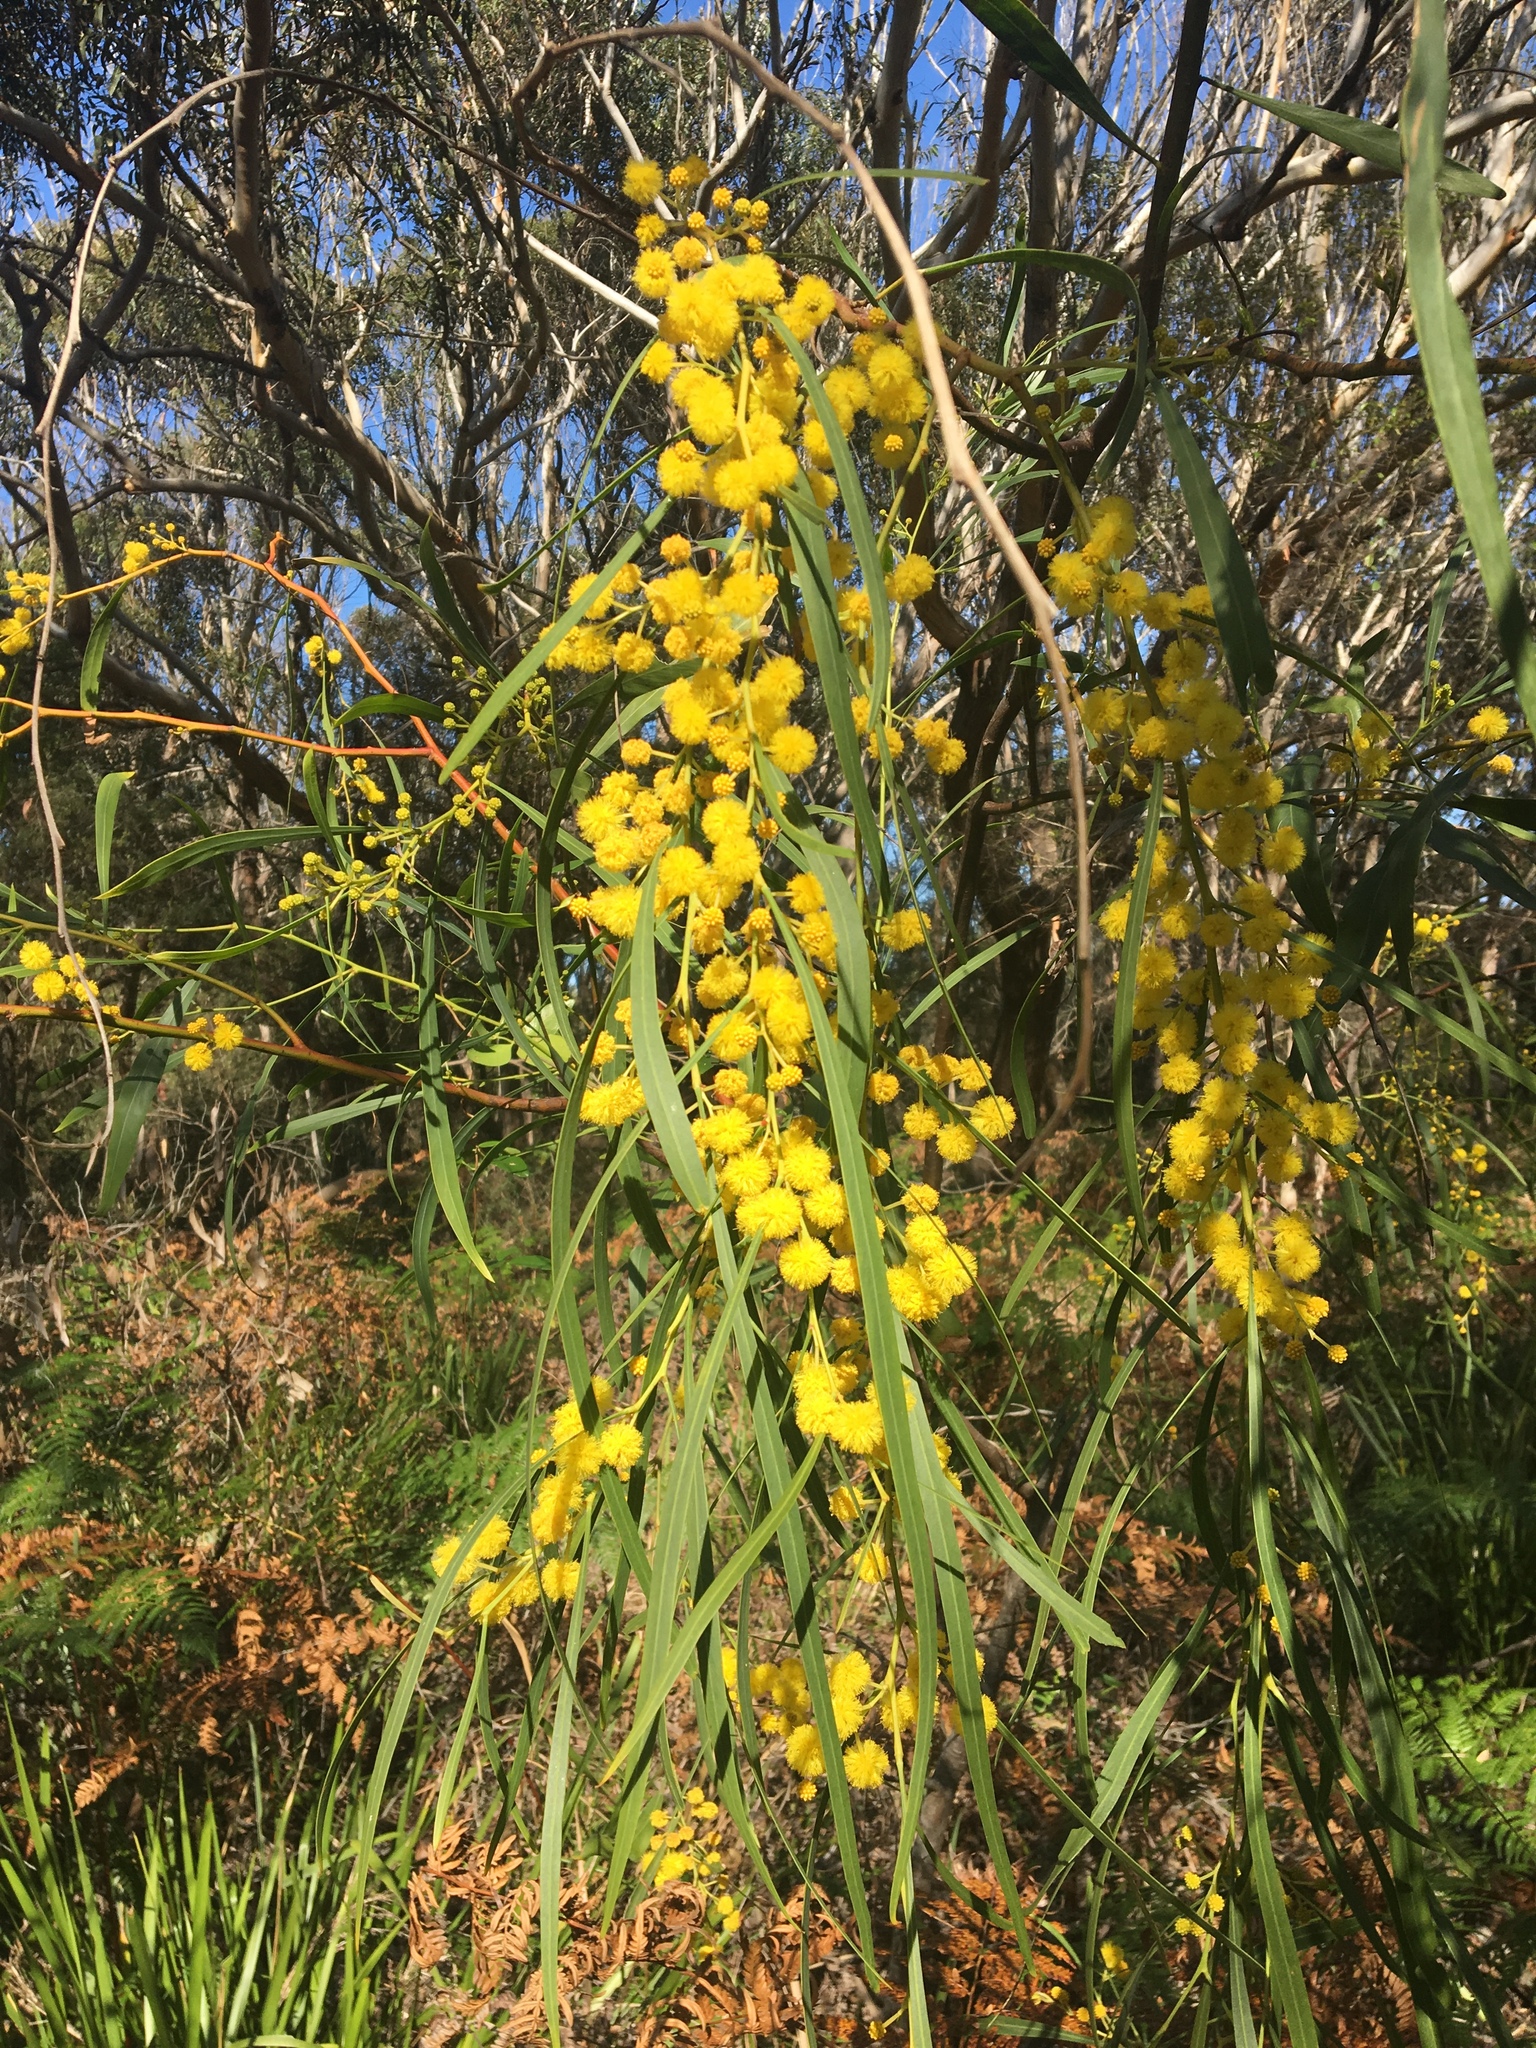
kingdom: Plantae
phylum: Tracheophyta
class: Magnoliopsida
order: Fabales
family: Fabaceae
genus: Acacia
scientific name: Acacia saligna
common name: Orange wattle
